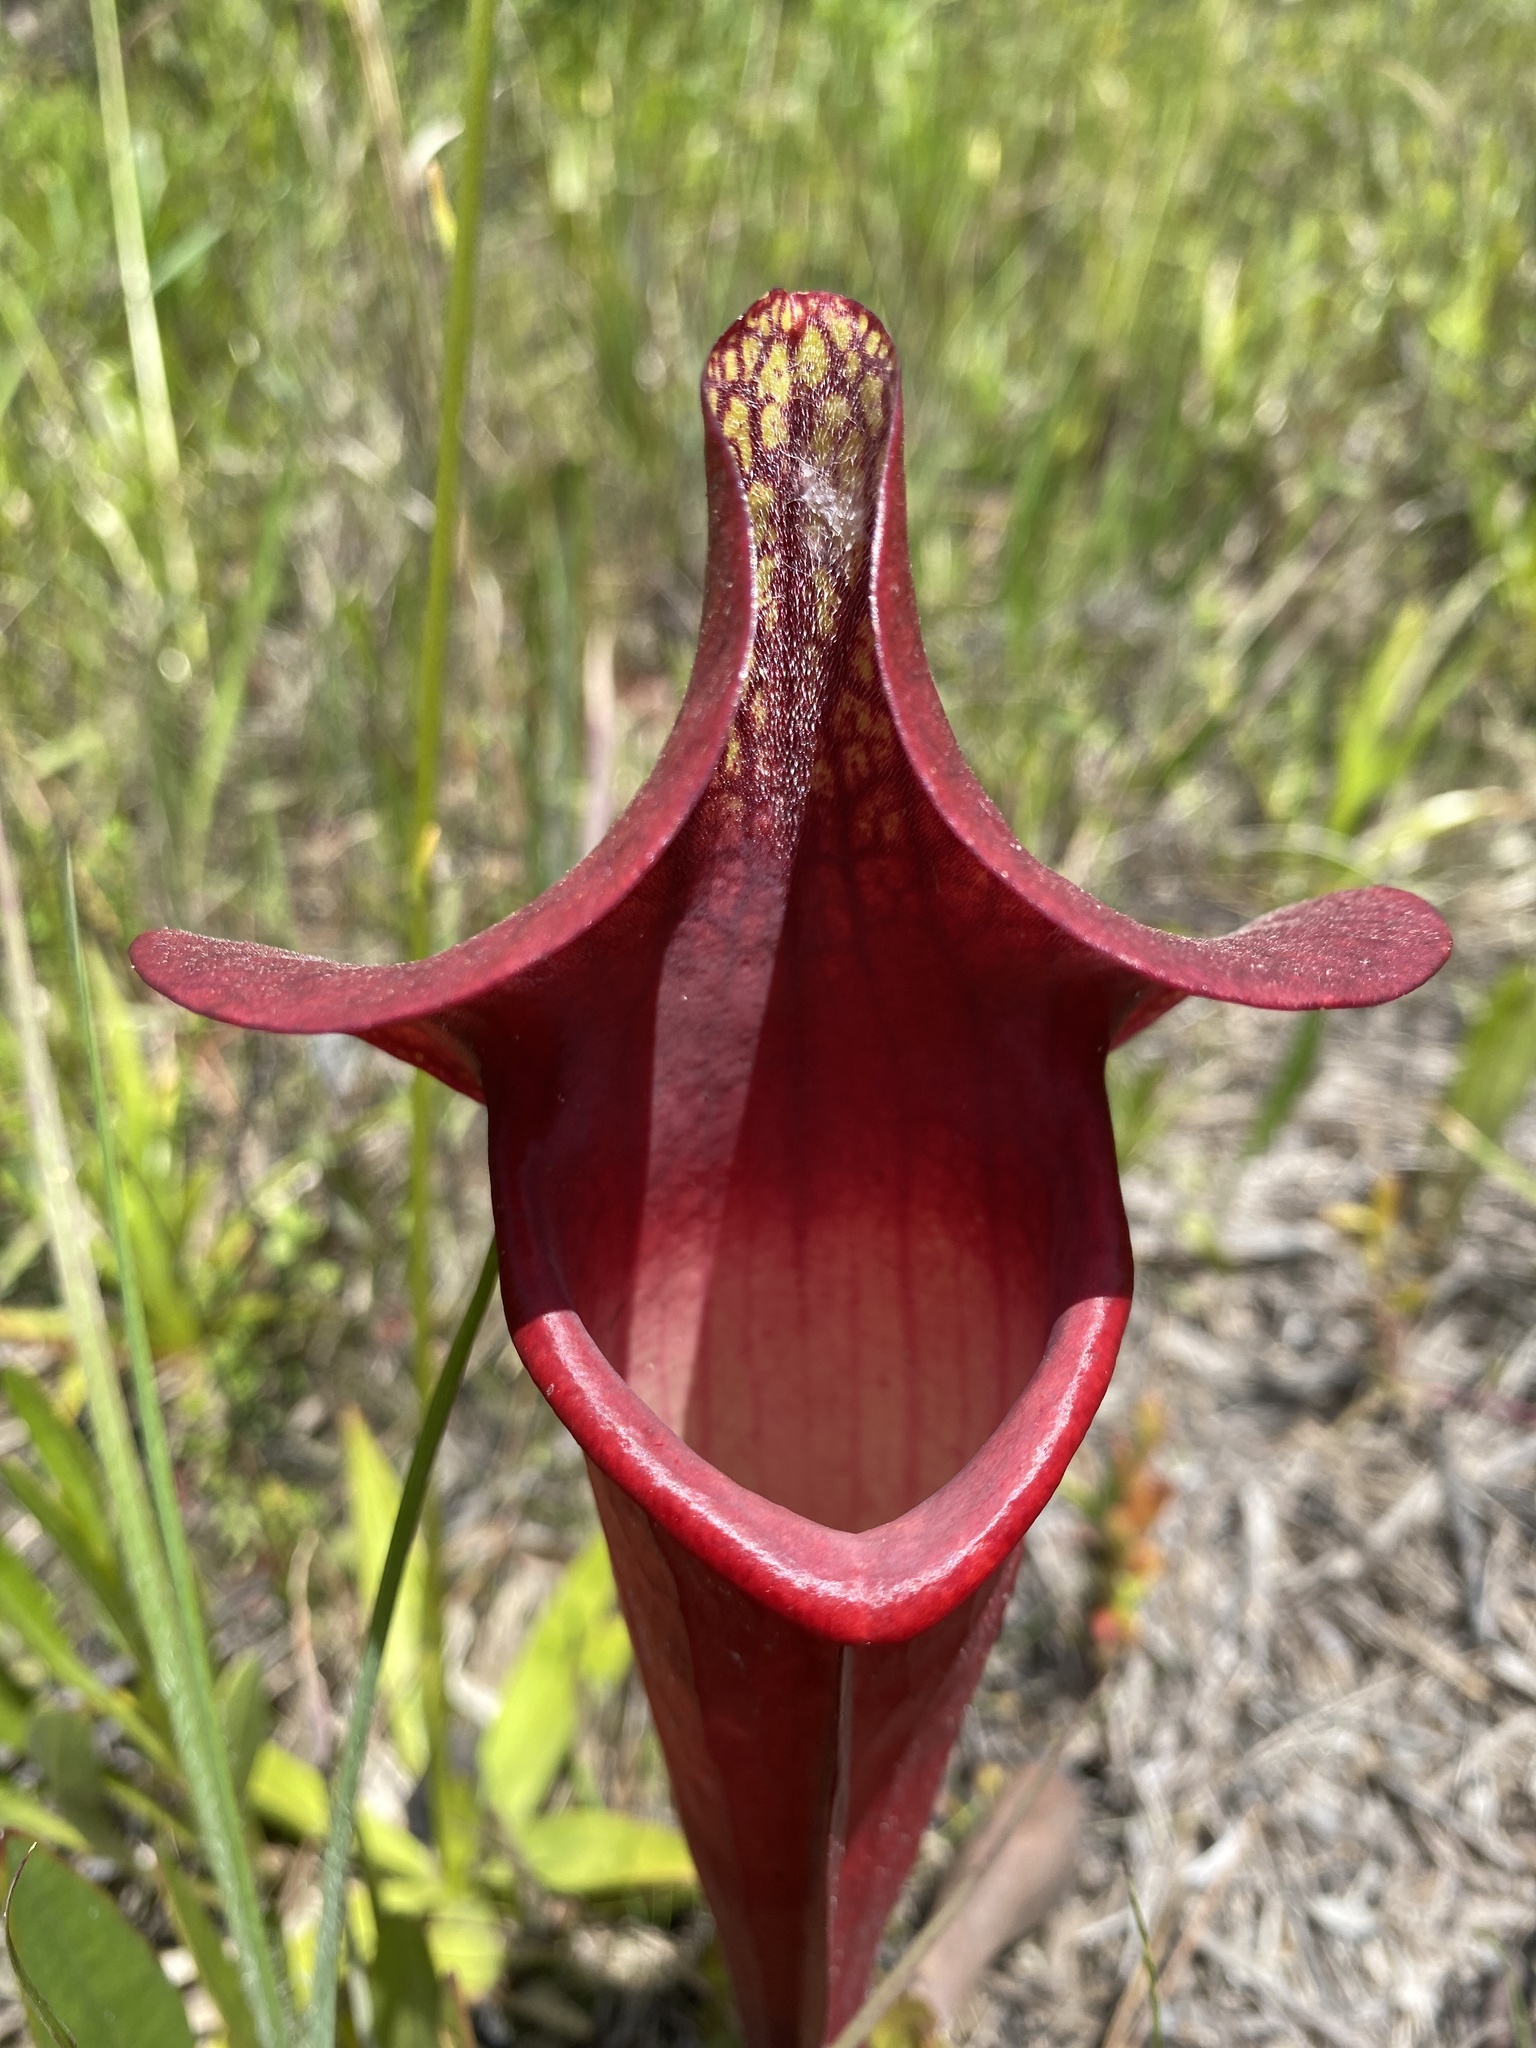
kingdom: Plantae
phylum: Tracheophyta
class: Magnoliopsida
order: Ericales
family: Sarraceniaceae
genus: Sarracenia
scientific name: Sarracenia naczii
